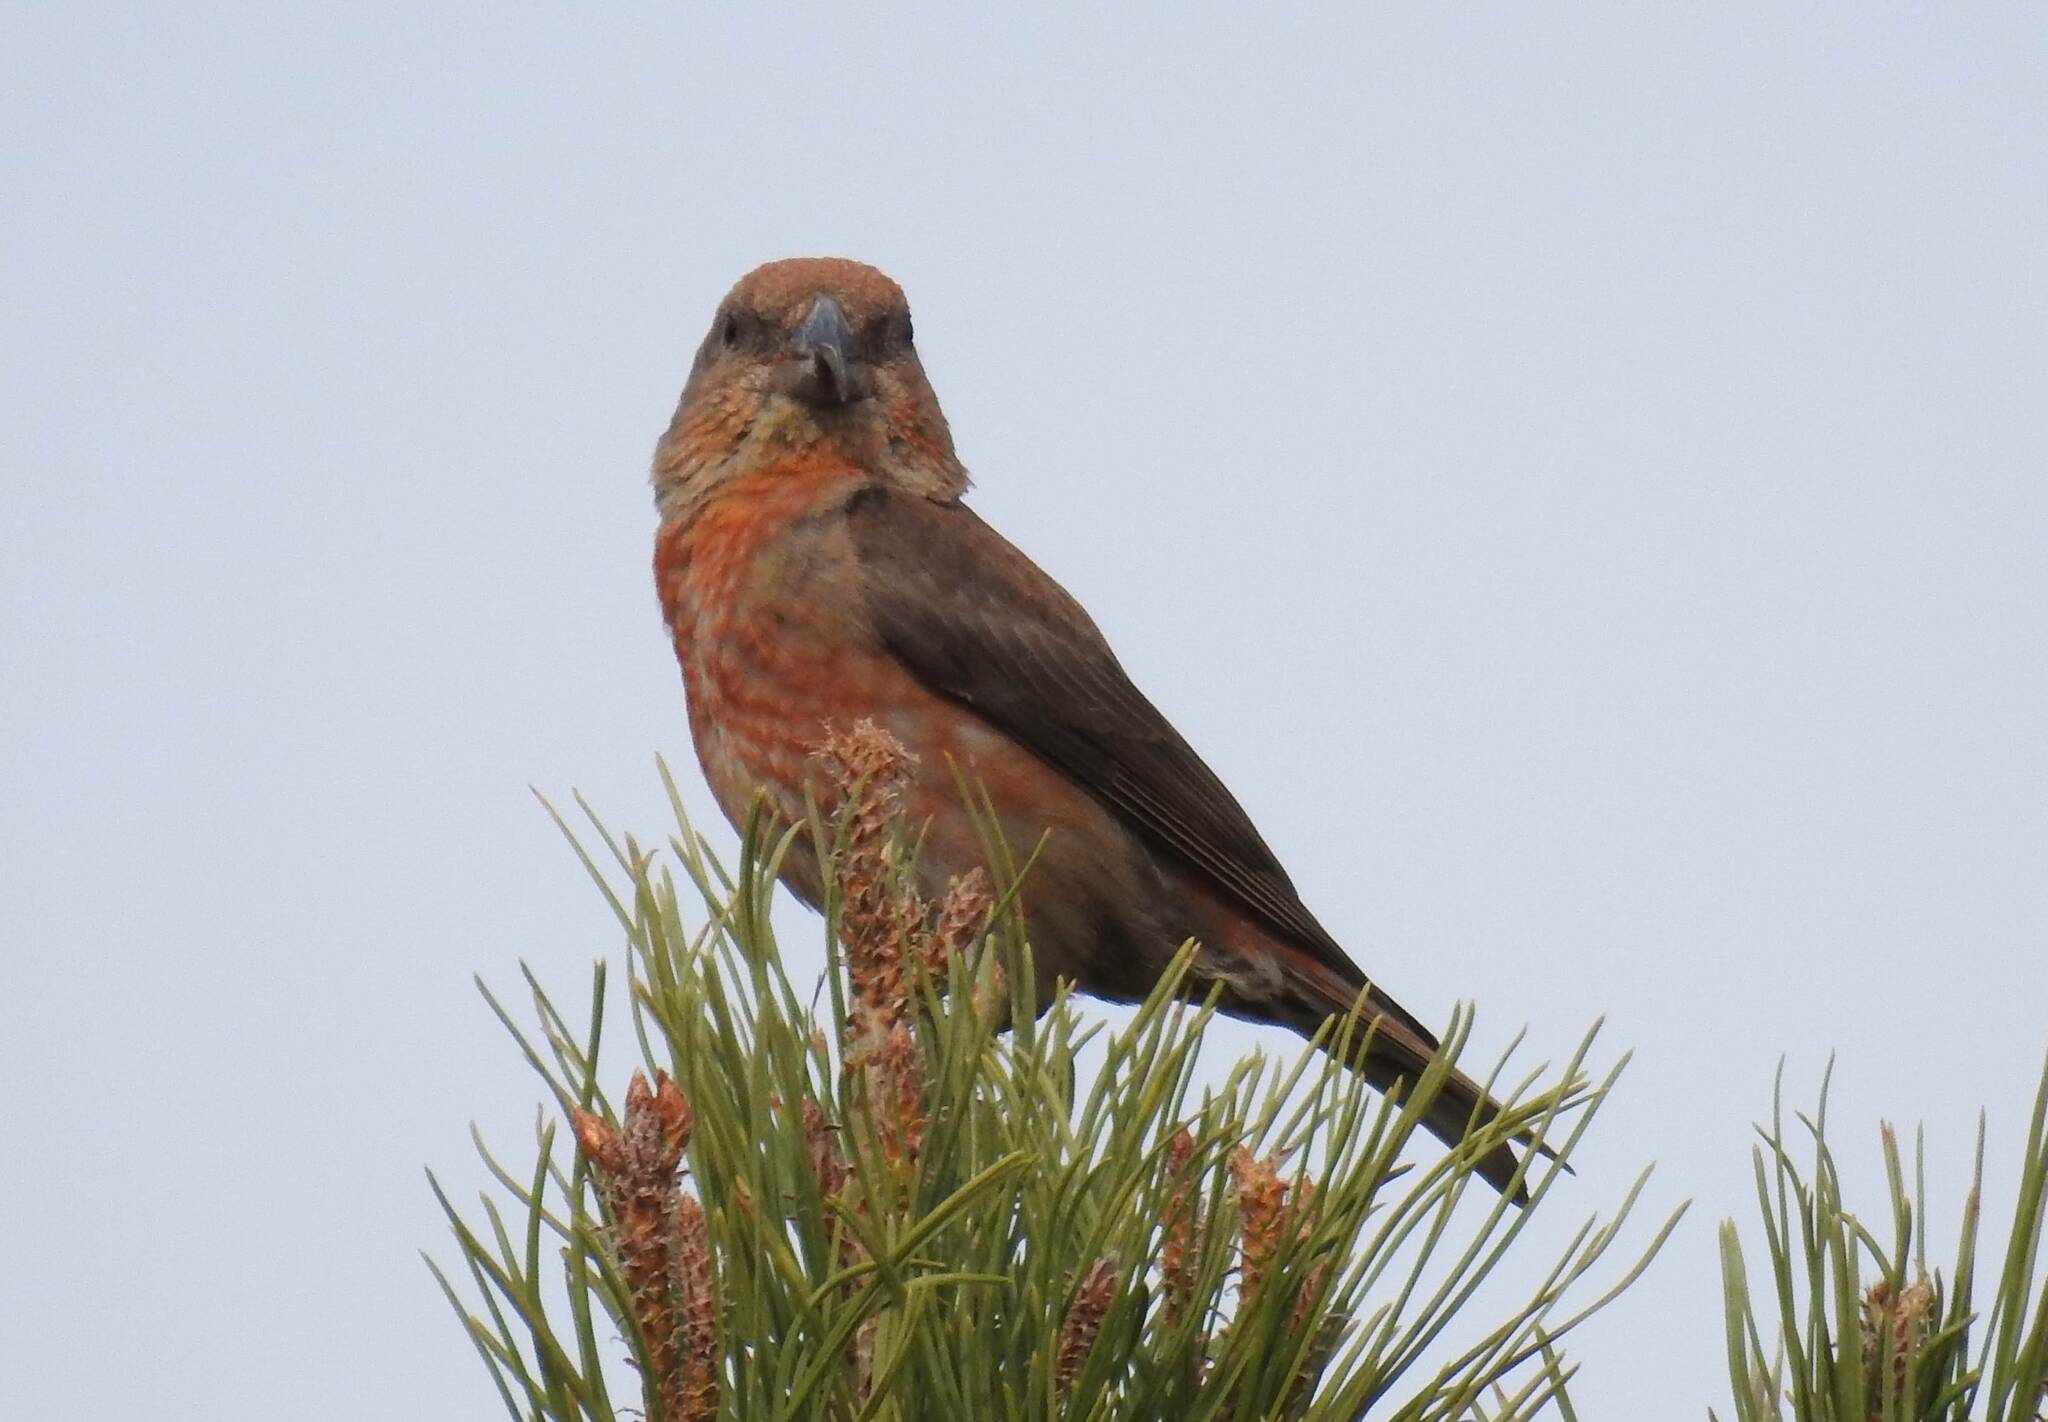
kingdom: Animalia
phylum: Chordata
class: Aves
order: Passeriformes
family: Fringillidae
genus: Loxia
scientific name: Loxia curvirostra
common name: Red crossbill
